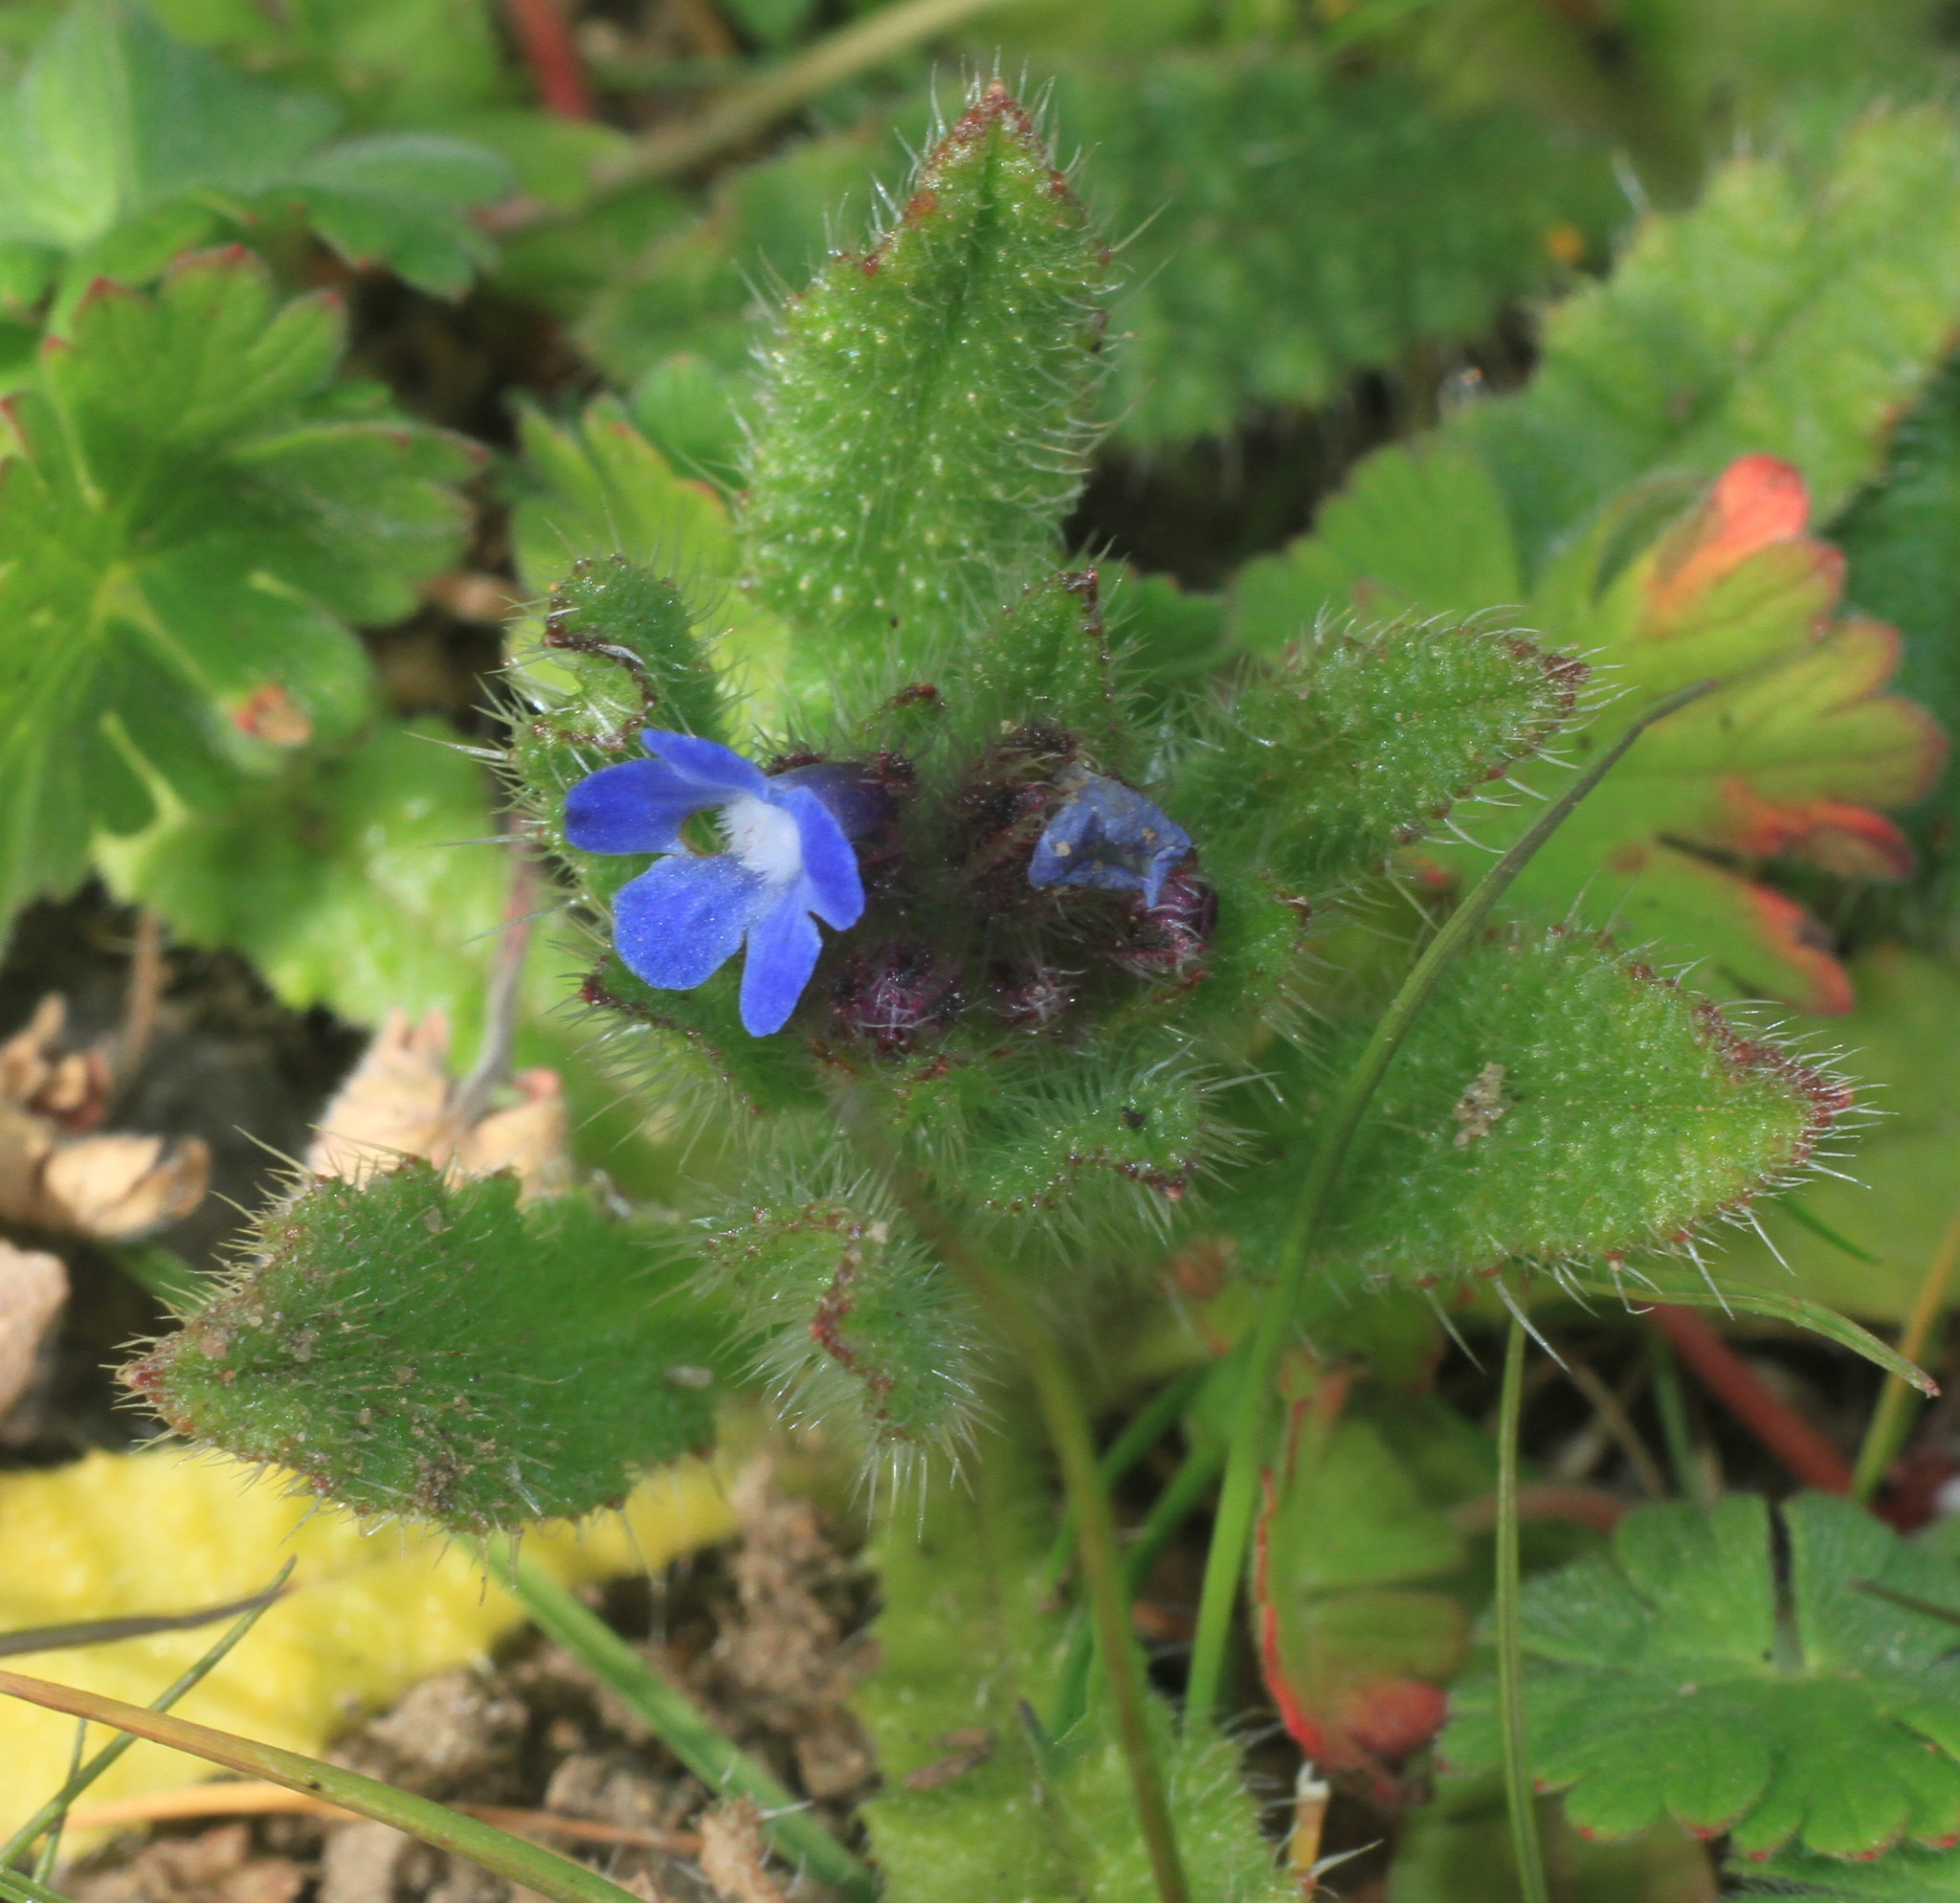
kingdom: Plantae
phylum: Tracheophyta
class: Magnoliopsida
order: Boraginales
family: Boraginaceae
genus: Lycopsis
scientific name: Lycopsis arvensis
